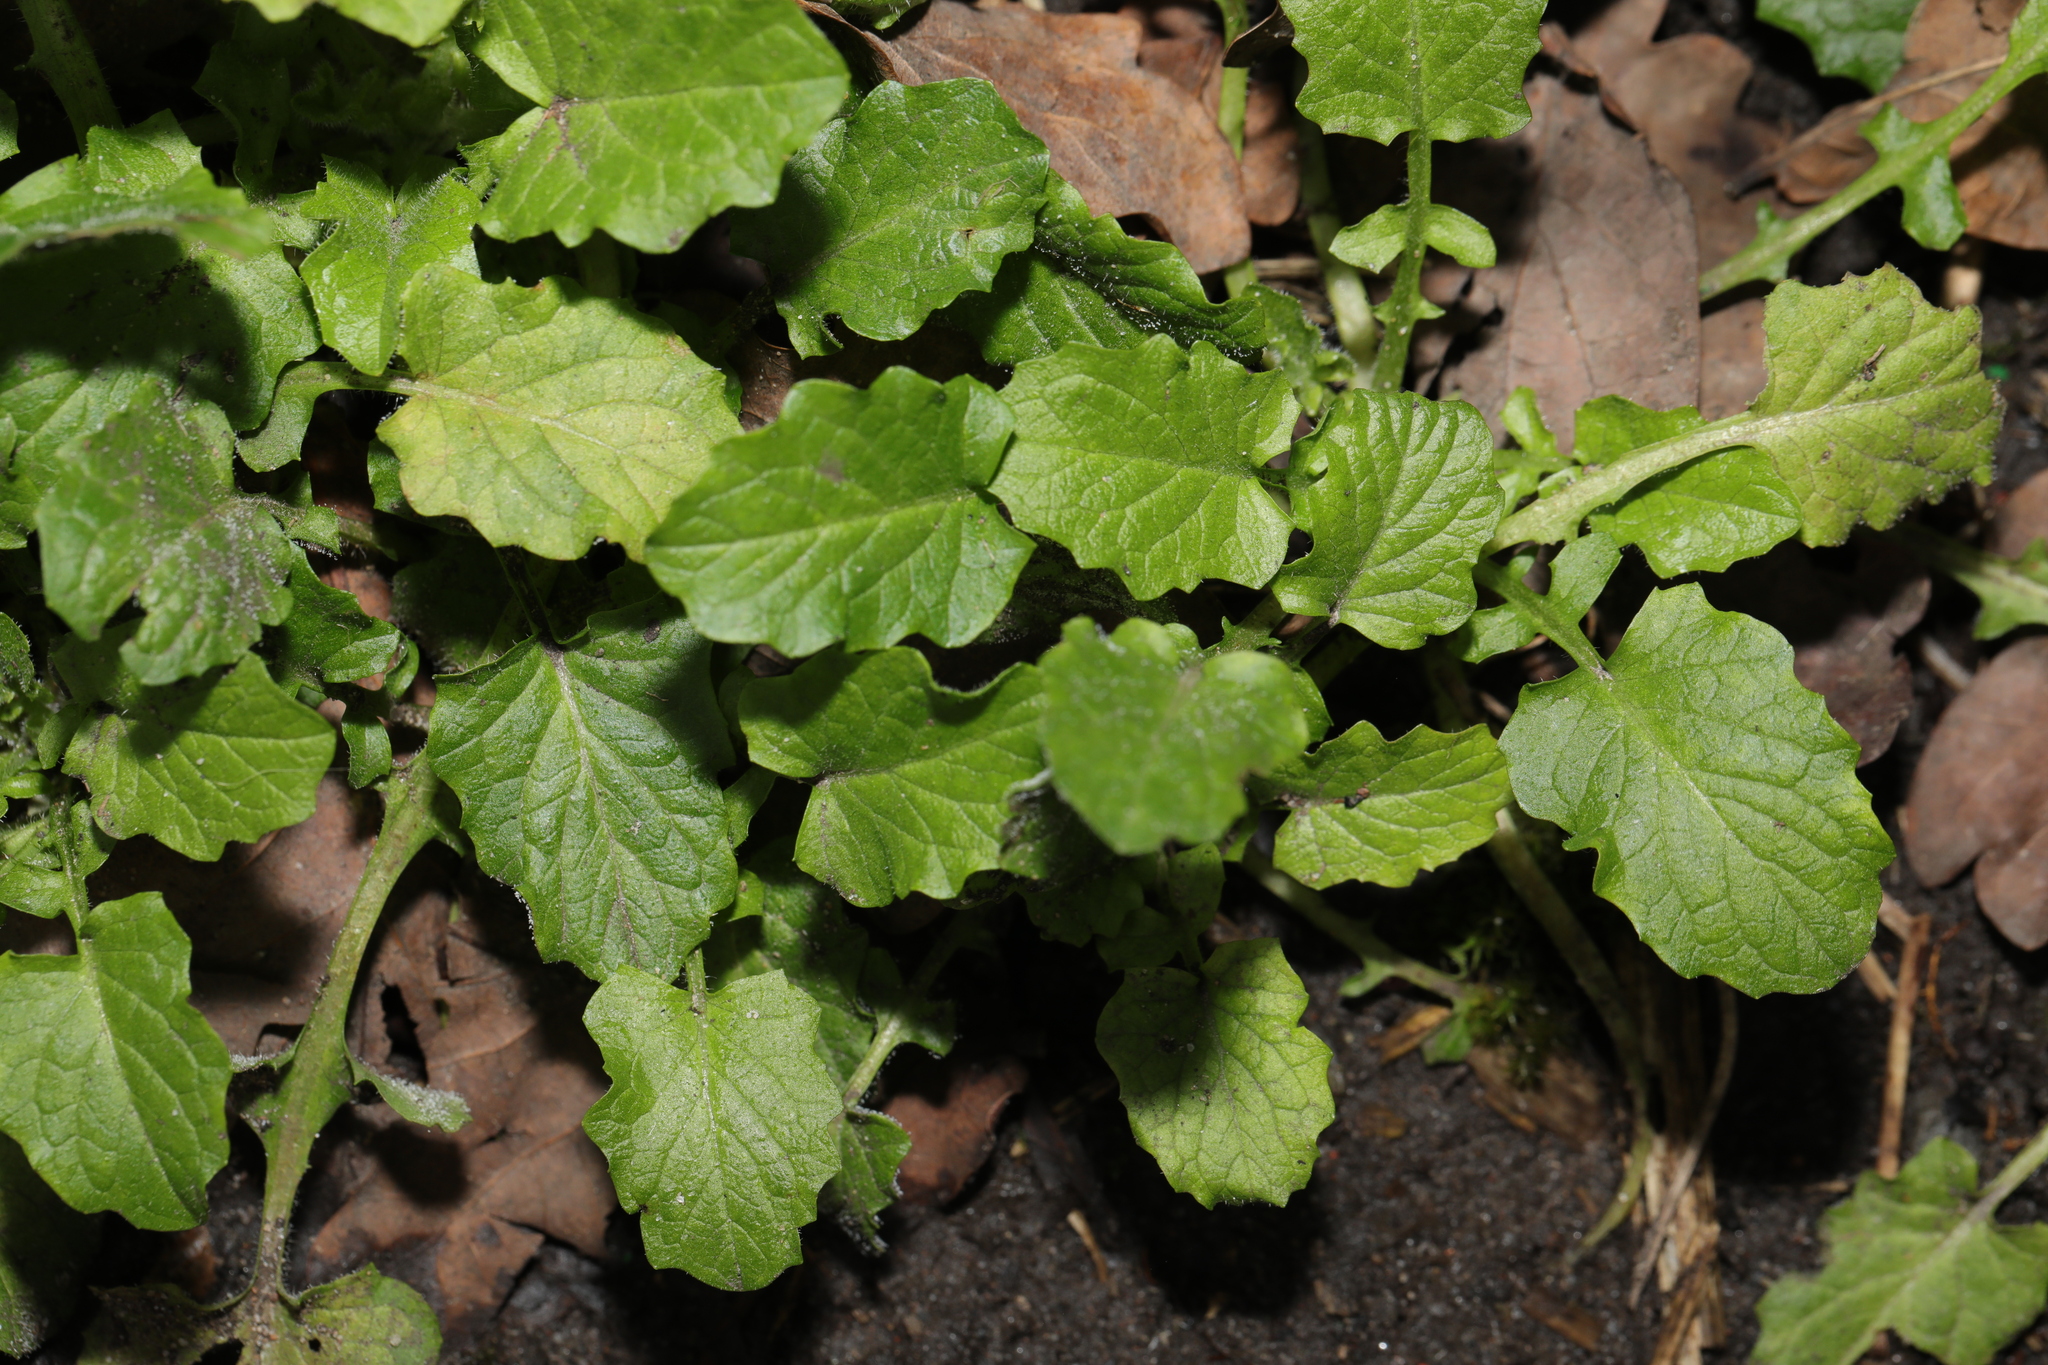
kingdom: Plantae
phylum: Tracheophyta
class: Magnoliopsida
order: Asterales
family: Asteraceae
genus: Lapsana
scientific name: Lapsana communis
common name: Nipplewort
